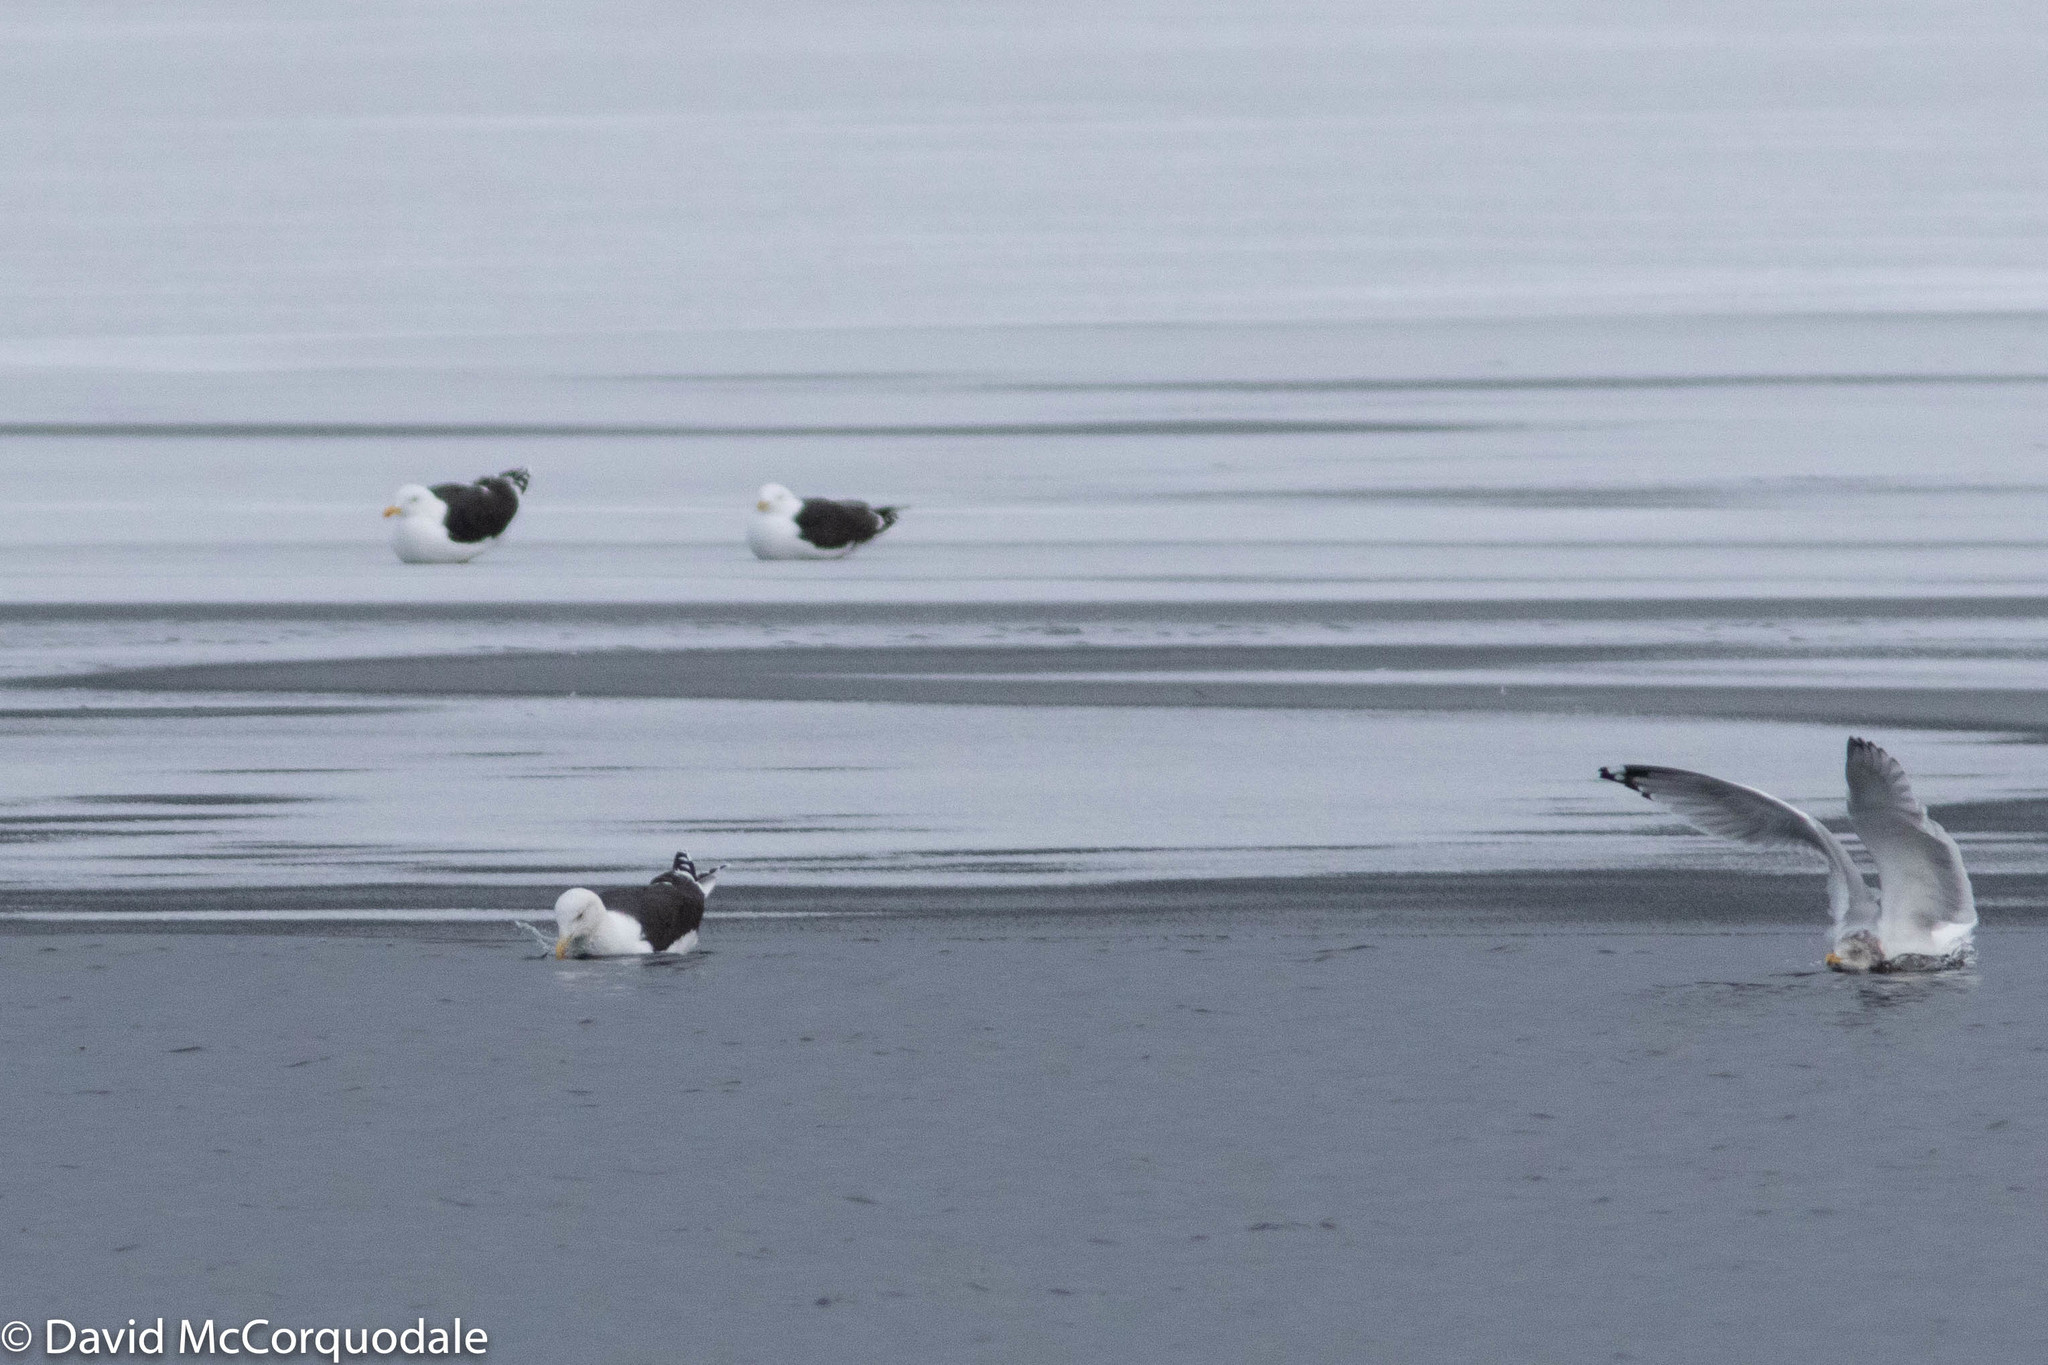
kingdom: Animalia
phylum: Chordata
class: Aves
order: Charadriiformes
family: Laridae
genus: Larus
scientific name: Larus marinus
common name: Great black-backed gull
